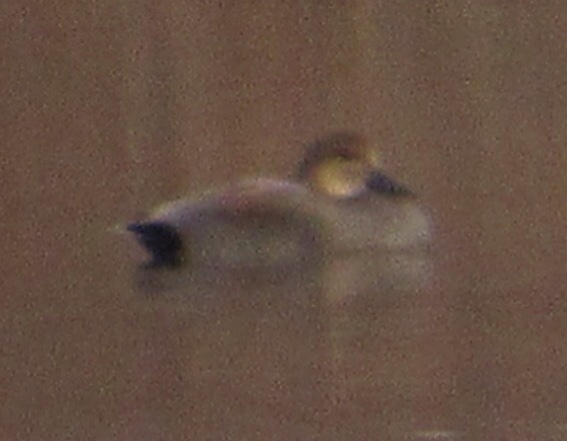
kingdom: Animalia
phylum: Chordata
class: Aves
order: Anseriformes
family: Anatidae
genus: Mareca
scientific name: Mareca strepera
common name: Gadwall
